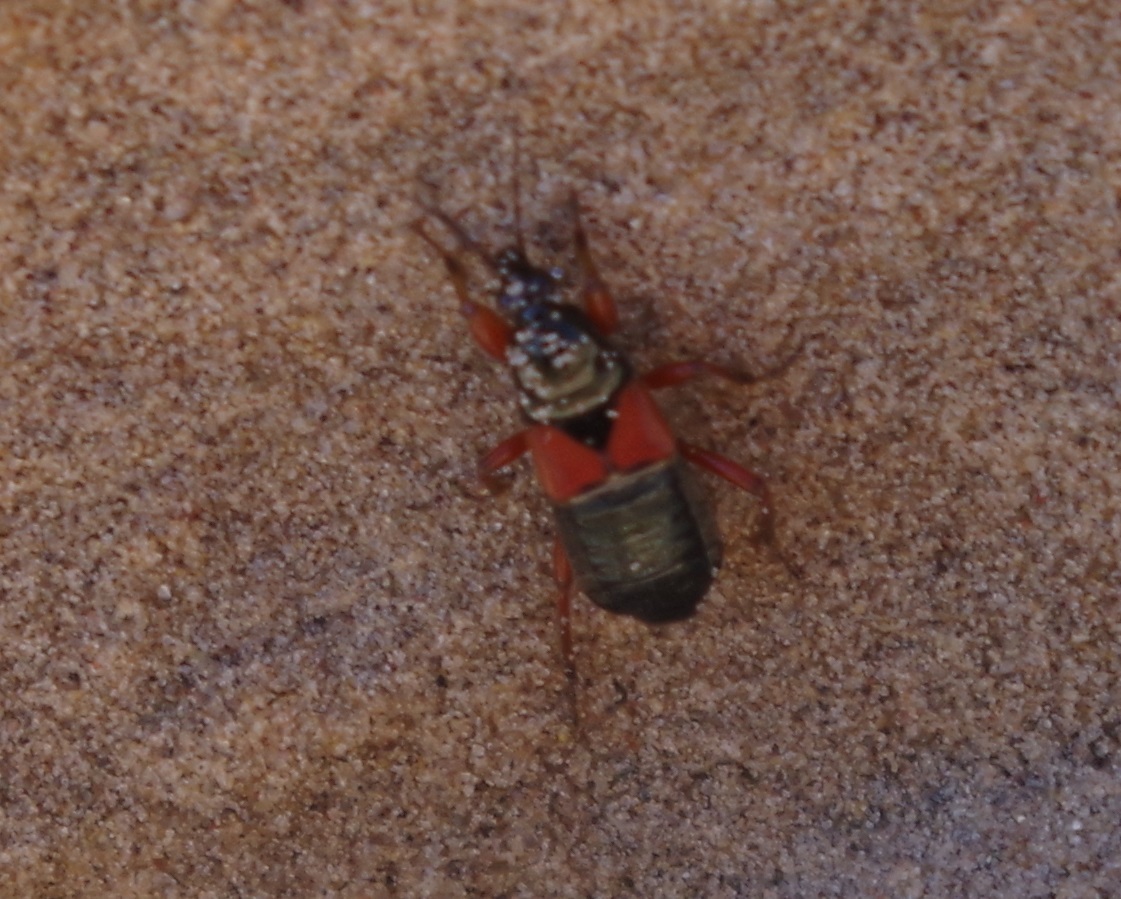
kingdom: Animalia
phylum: Arthropoda
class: Insecta
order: Hemiptera
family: Nabidae
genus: Prostemma
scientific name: Prostemma guttula
